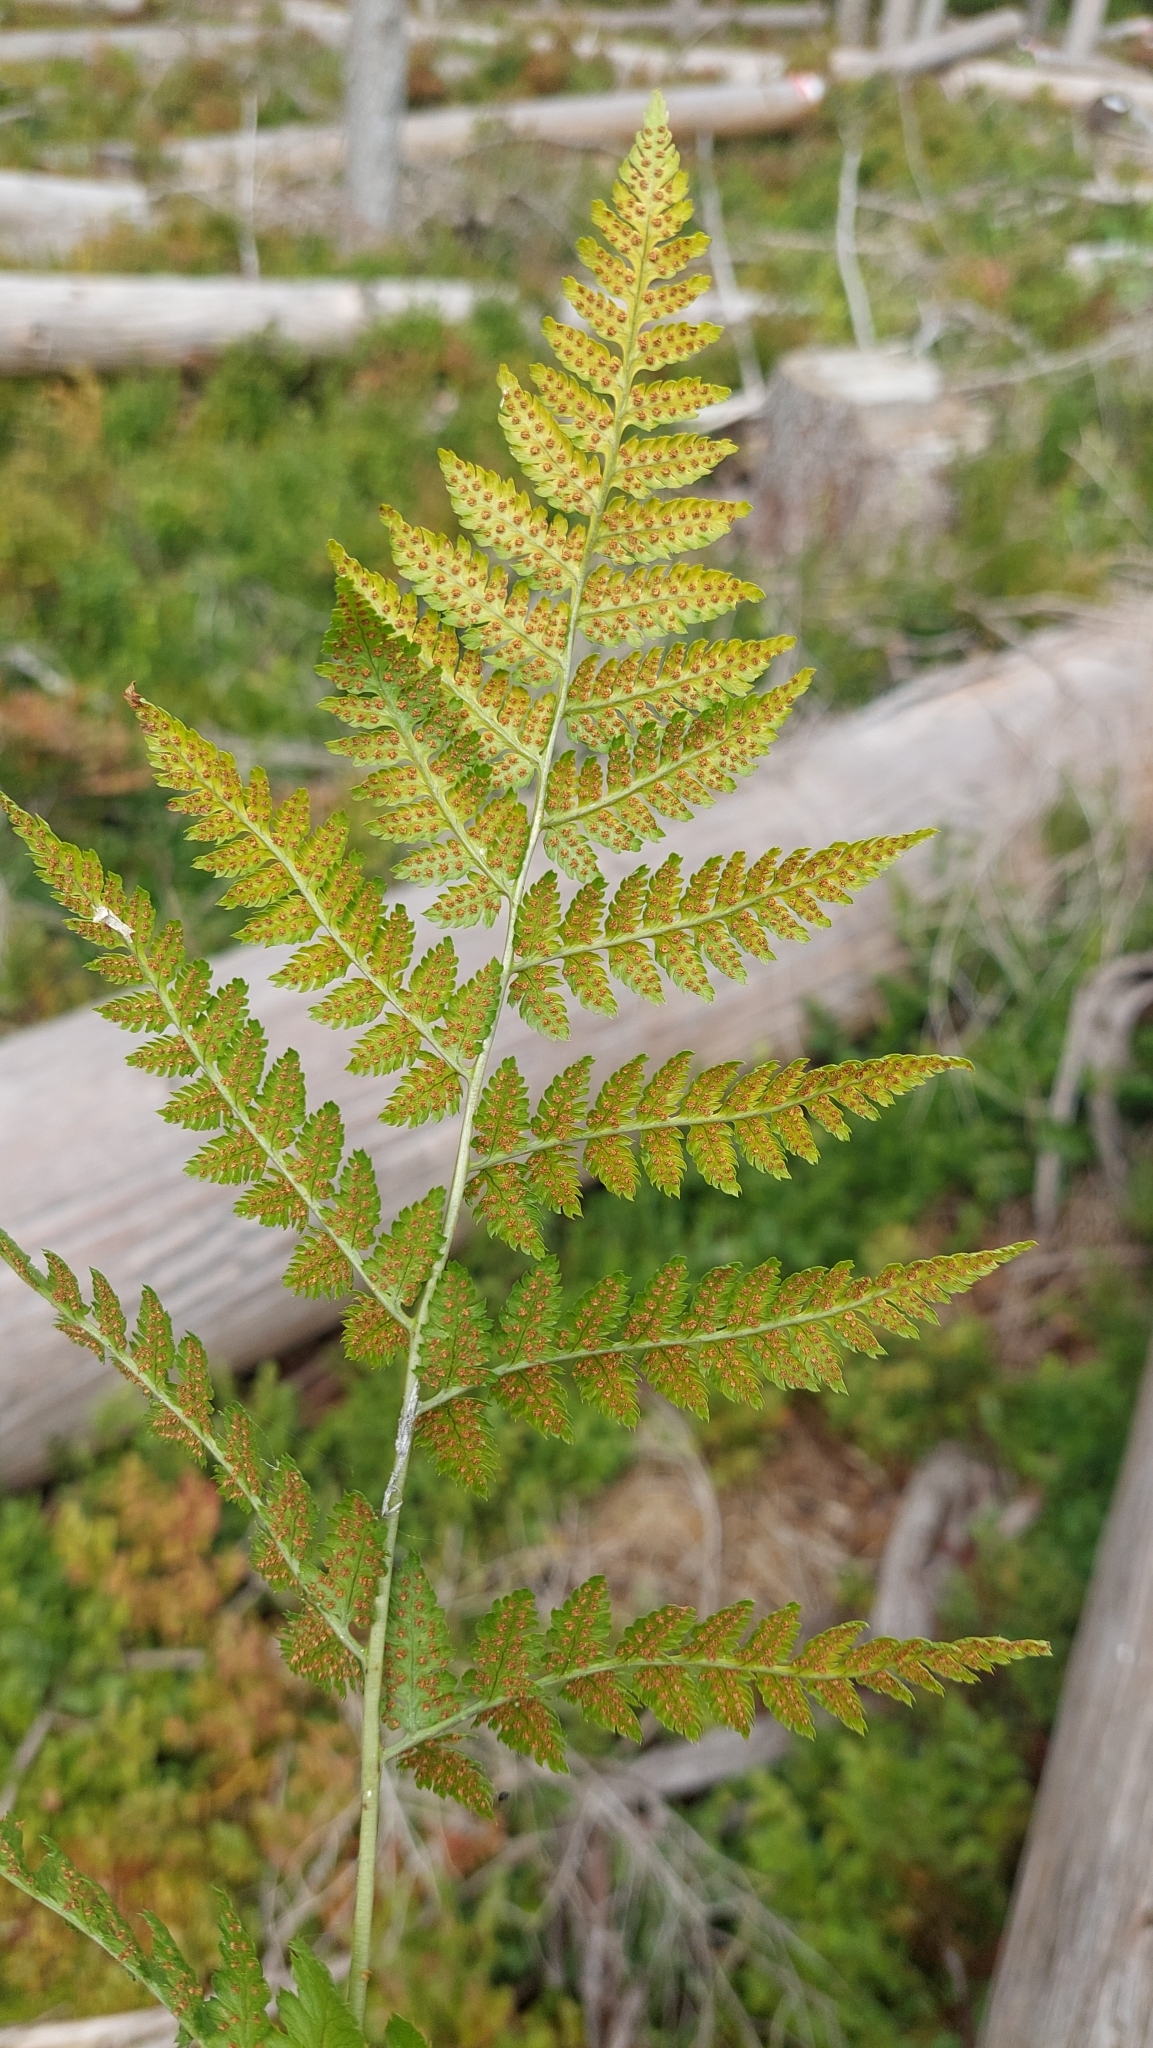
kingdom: Plantae
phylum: Tracheophyta
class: Polypodiopsida
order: Polypodiales
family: Dryopteridaceae
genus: Dryopteris
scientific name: Dryopteris carthusiana
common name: Narrow buckler-fern
